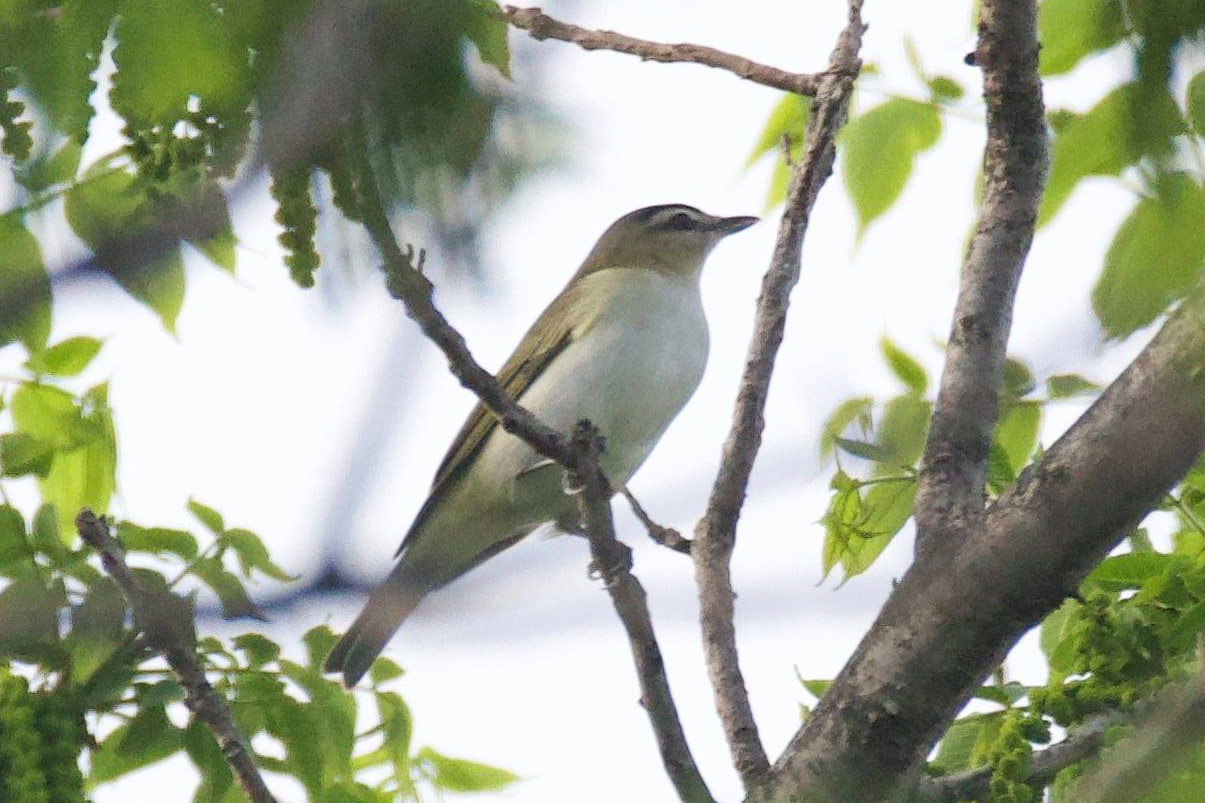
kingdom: Animalia
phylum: Chordata
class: Aves
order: Passeriformes
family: Vireonidae
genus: Vireo
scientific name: Vireo olivaceus
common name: Red-eyed vireo
